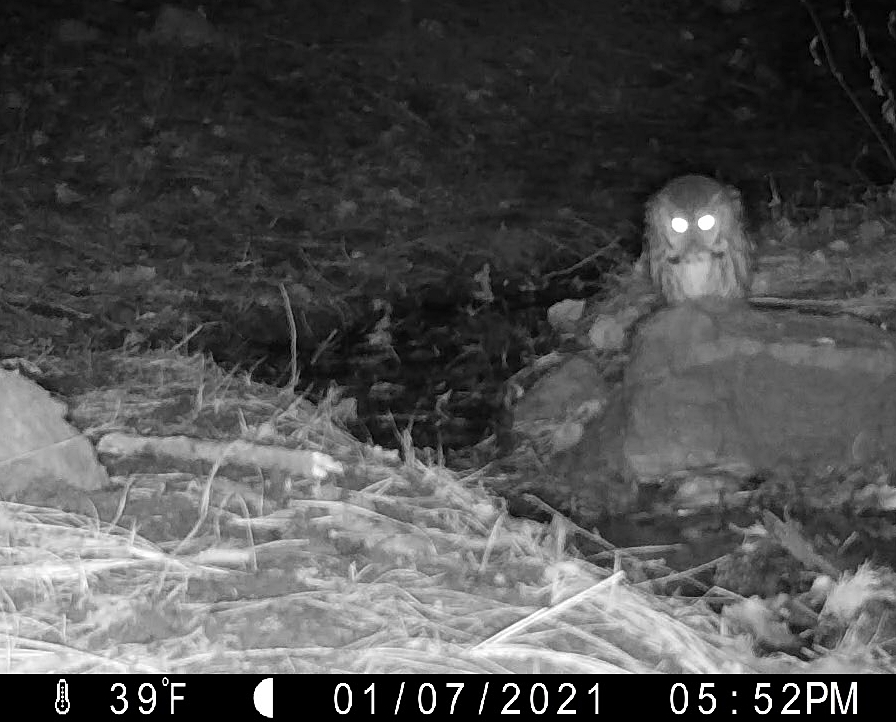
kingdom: Animalia
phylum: Chordata
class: Aves
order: Strigiformes
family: Strigidae
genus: Megascops
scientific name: Megascops asio
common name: Eastern screech-owl
